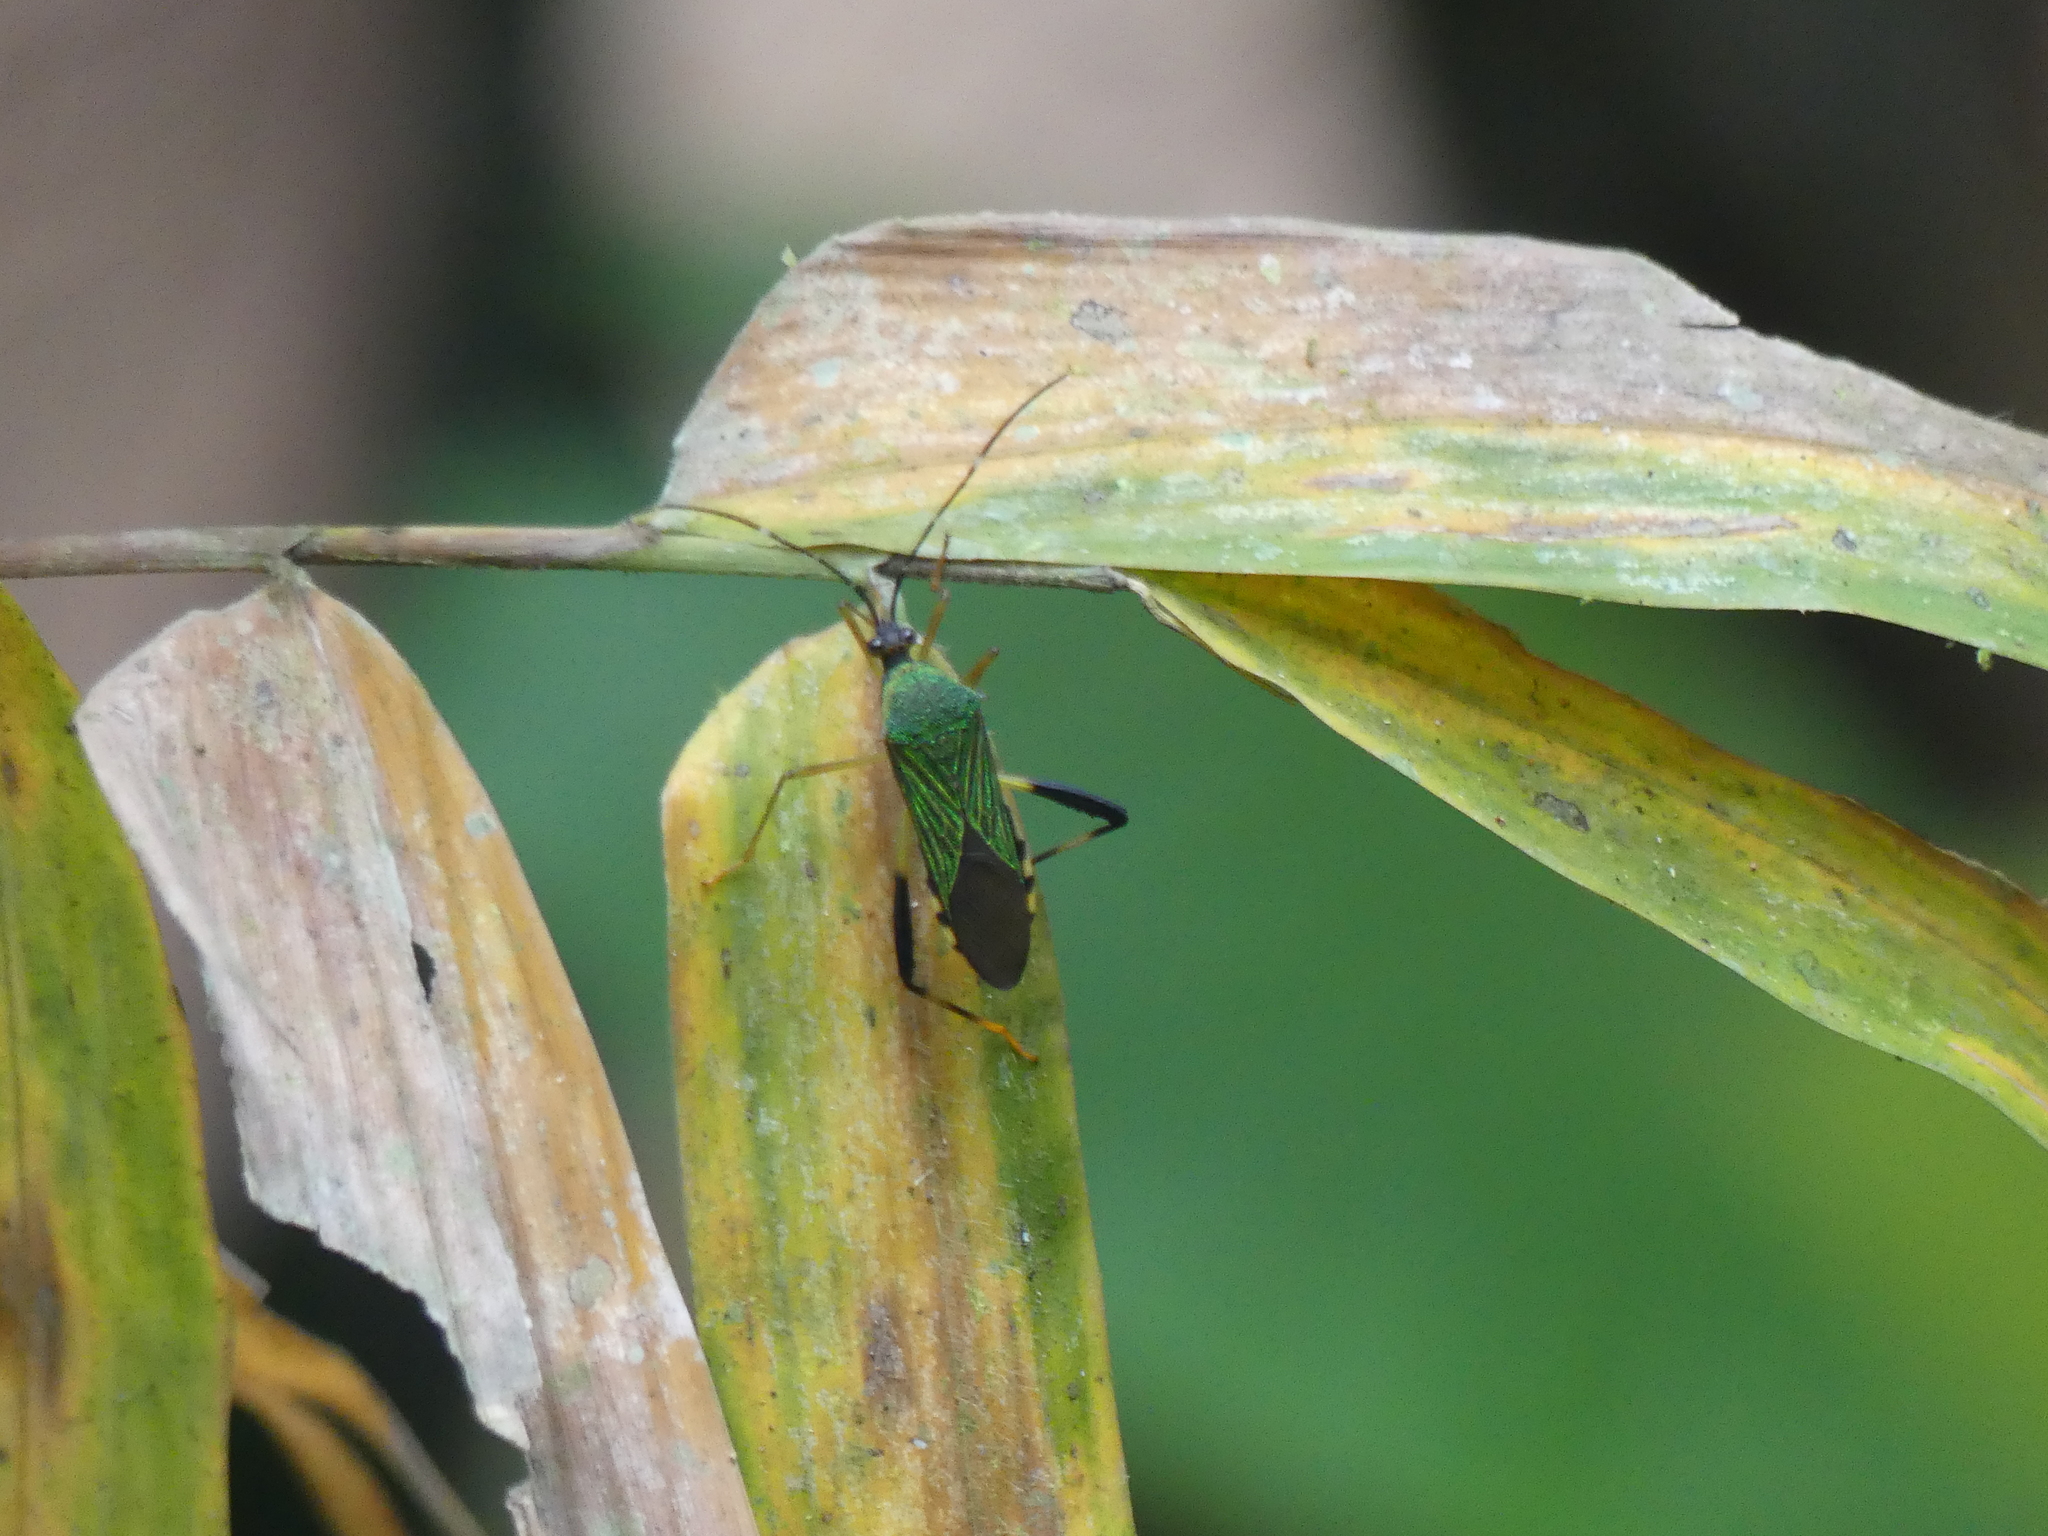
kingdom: Animalia
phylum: Arthropoda
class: Insecta
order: Hemiptera
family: Coreidae
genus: Petalops
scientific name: Petalops azureus
